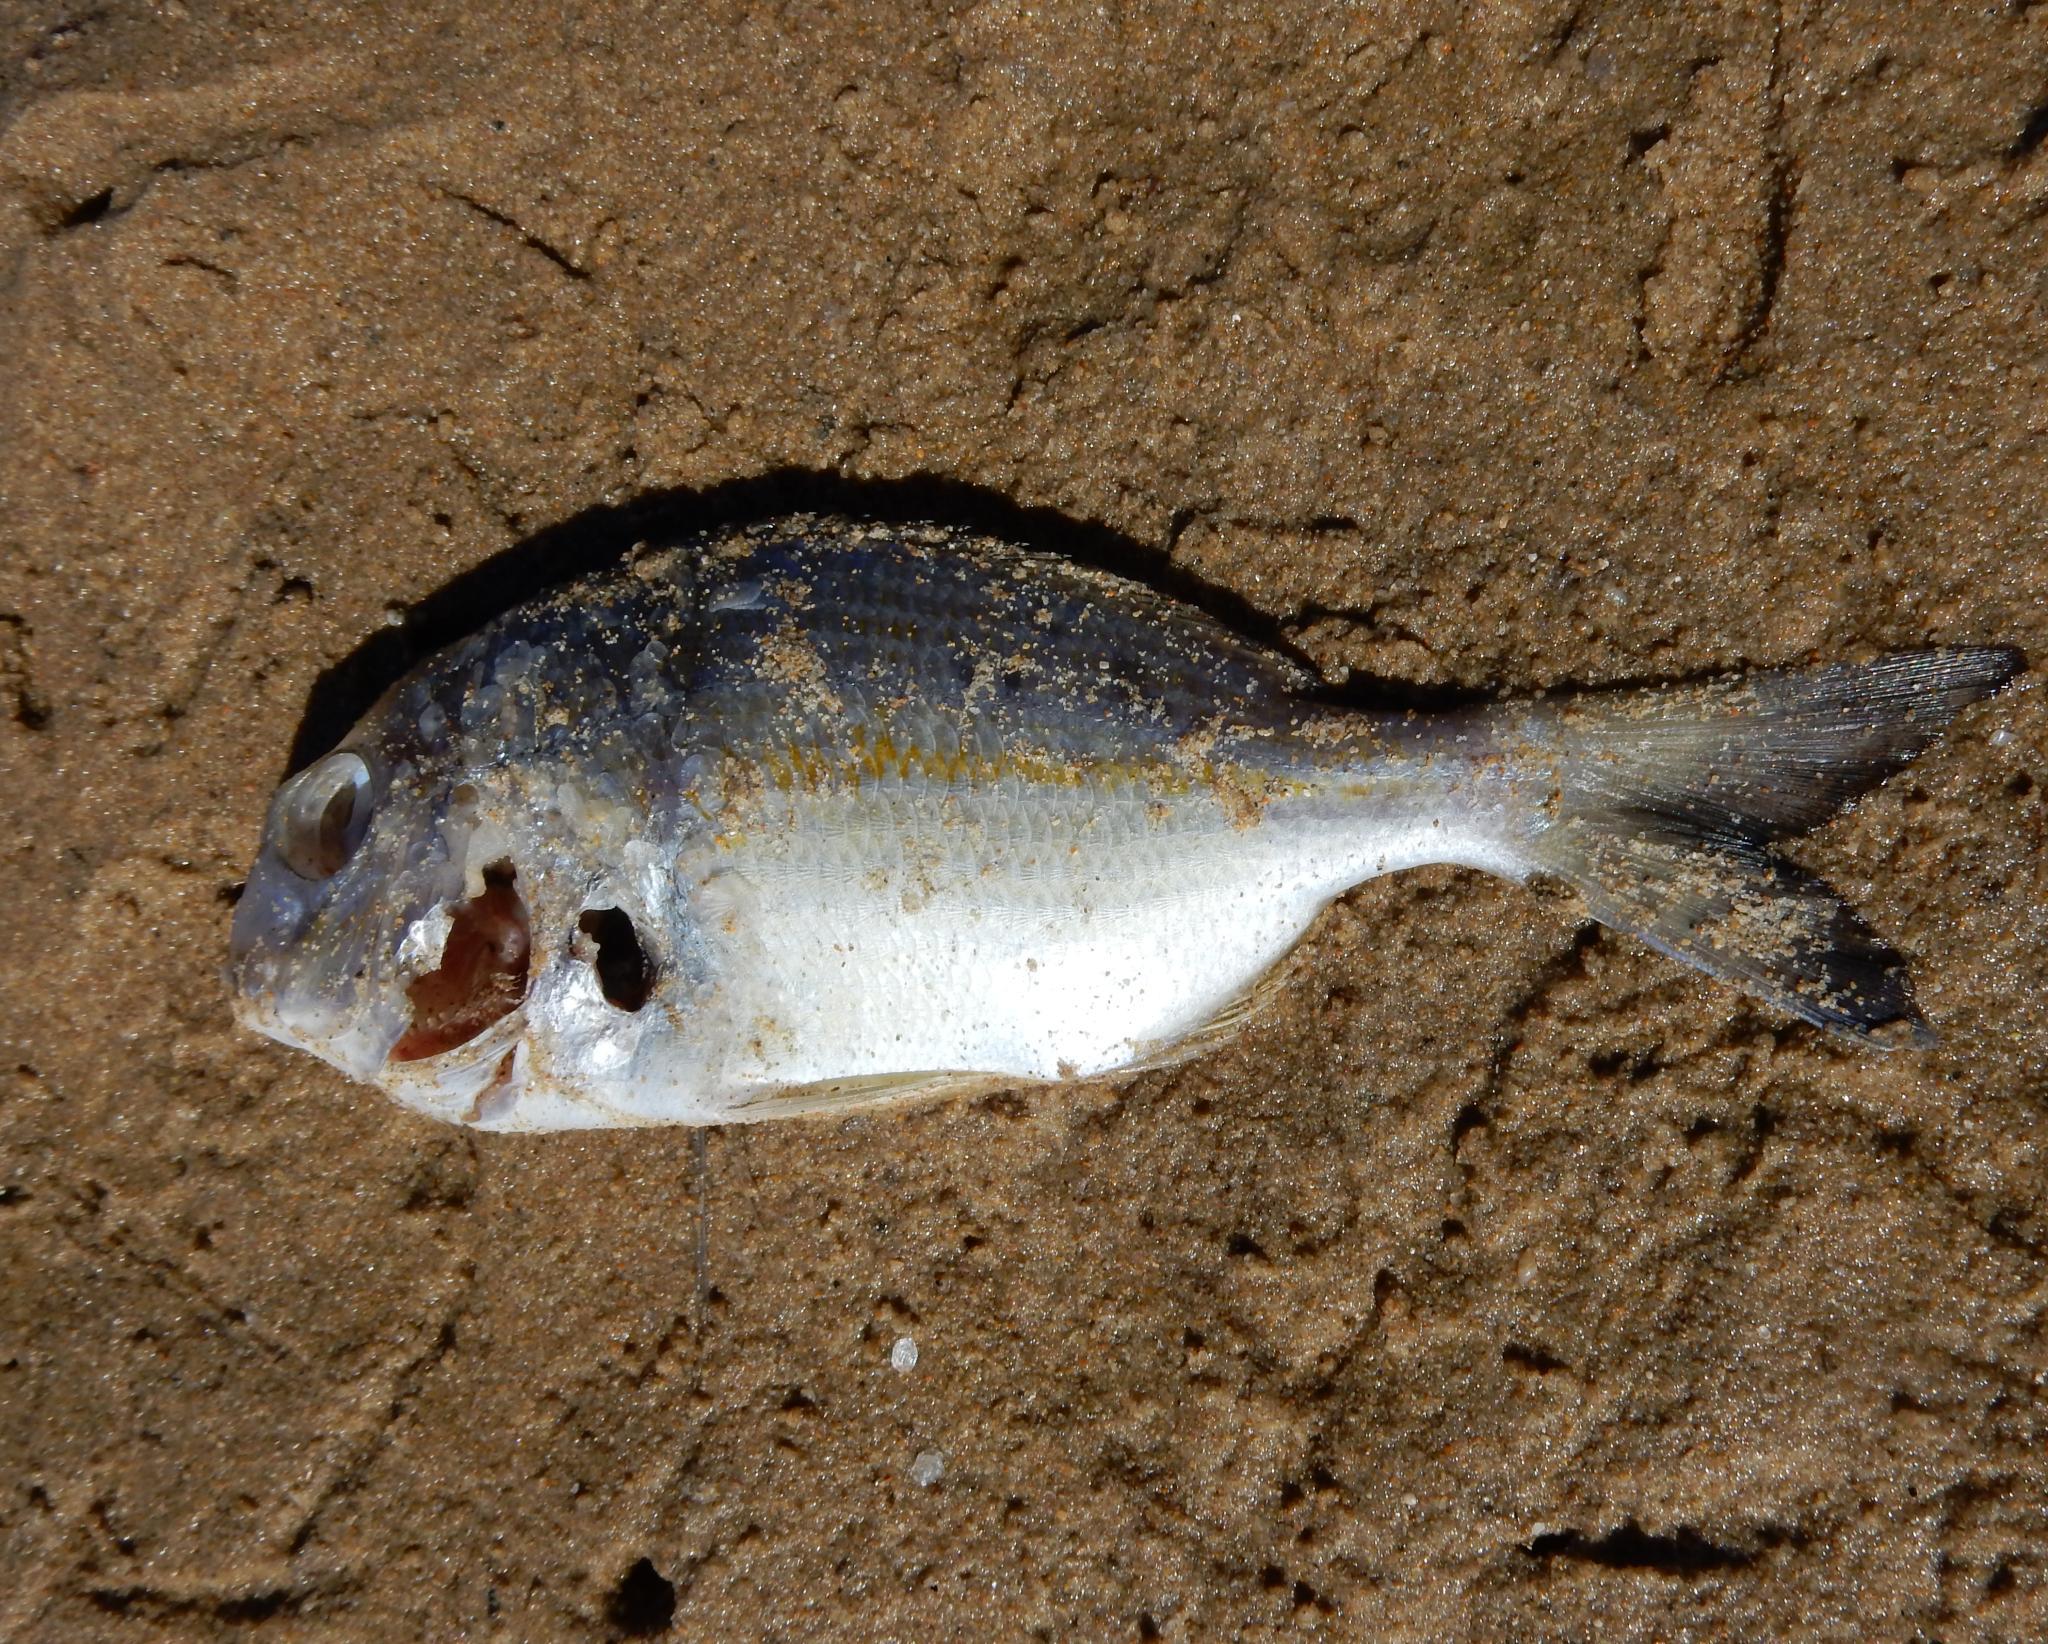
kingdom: Animalia
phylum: Chordata
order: Perciformes
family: Sparidae
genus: Rhabdosargus
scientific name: Rhabdosargus holubi
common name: Cape stumpnose
